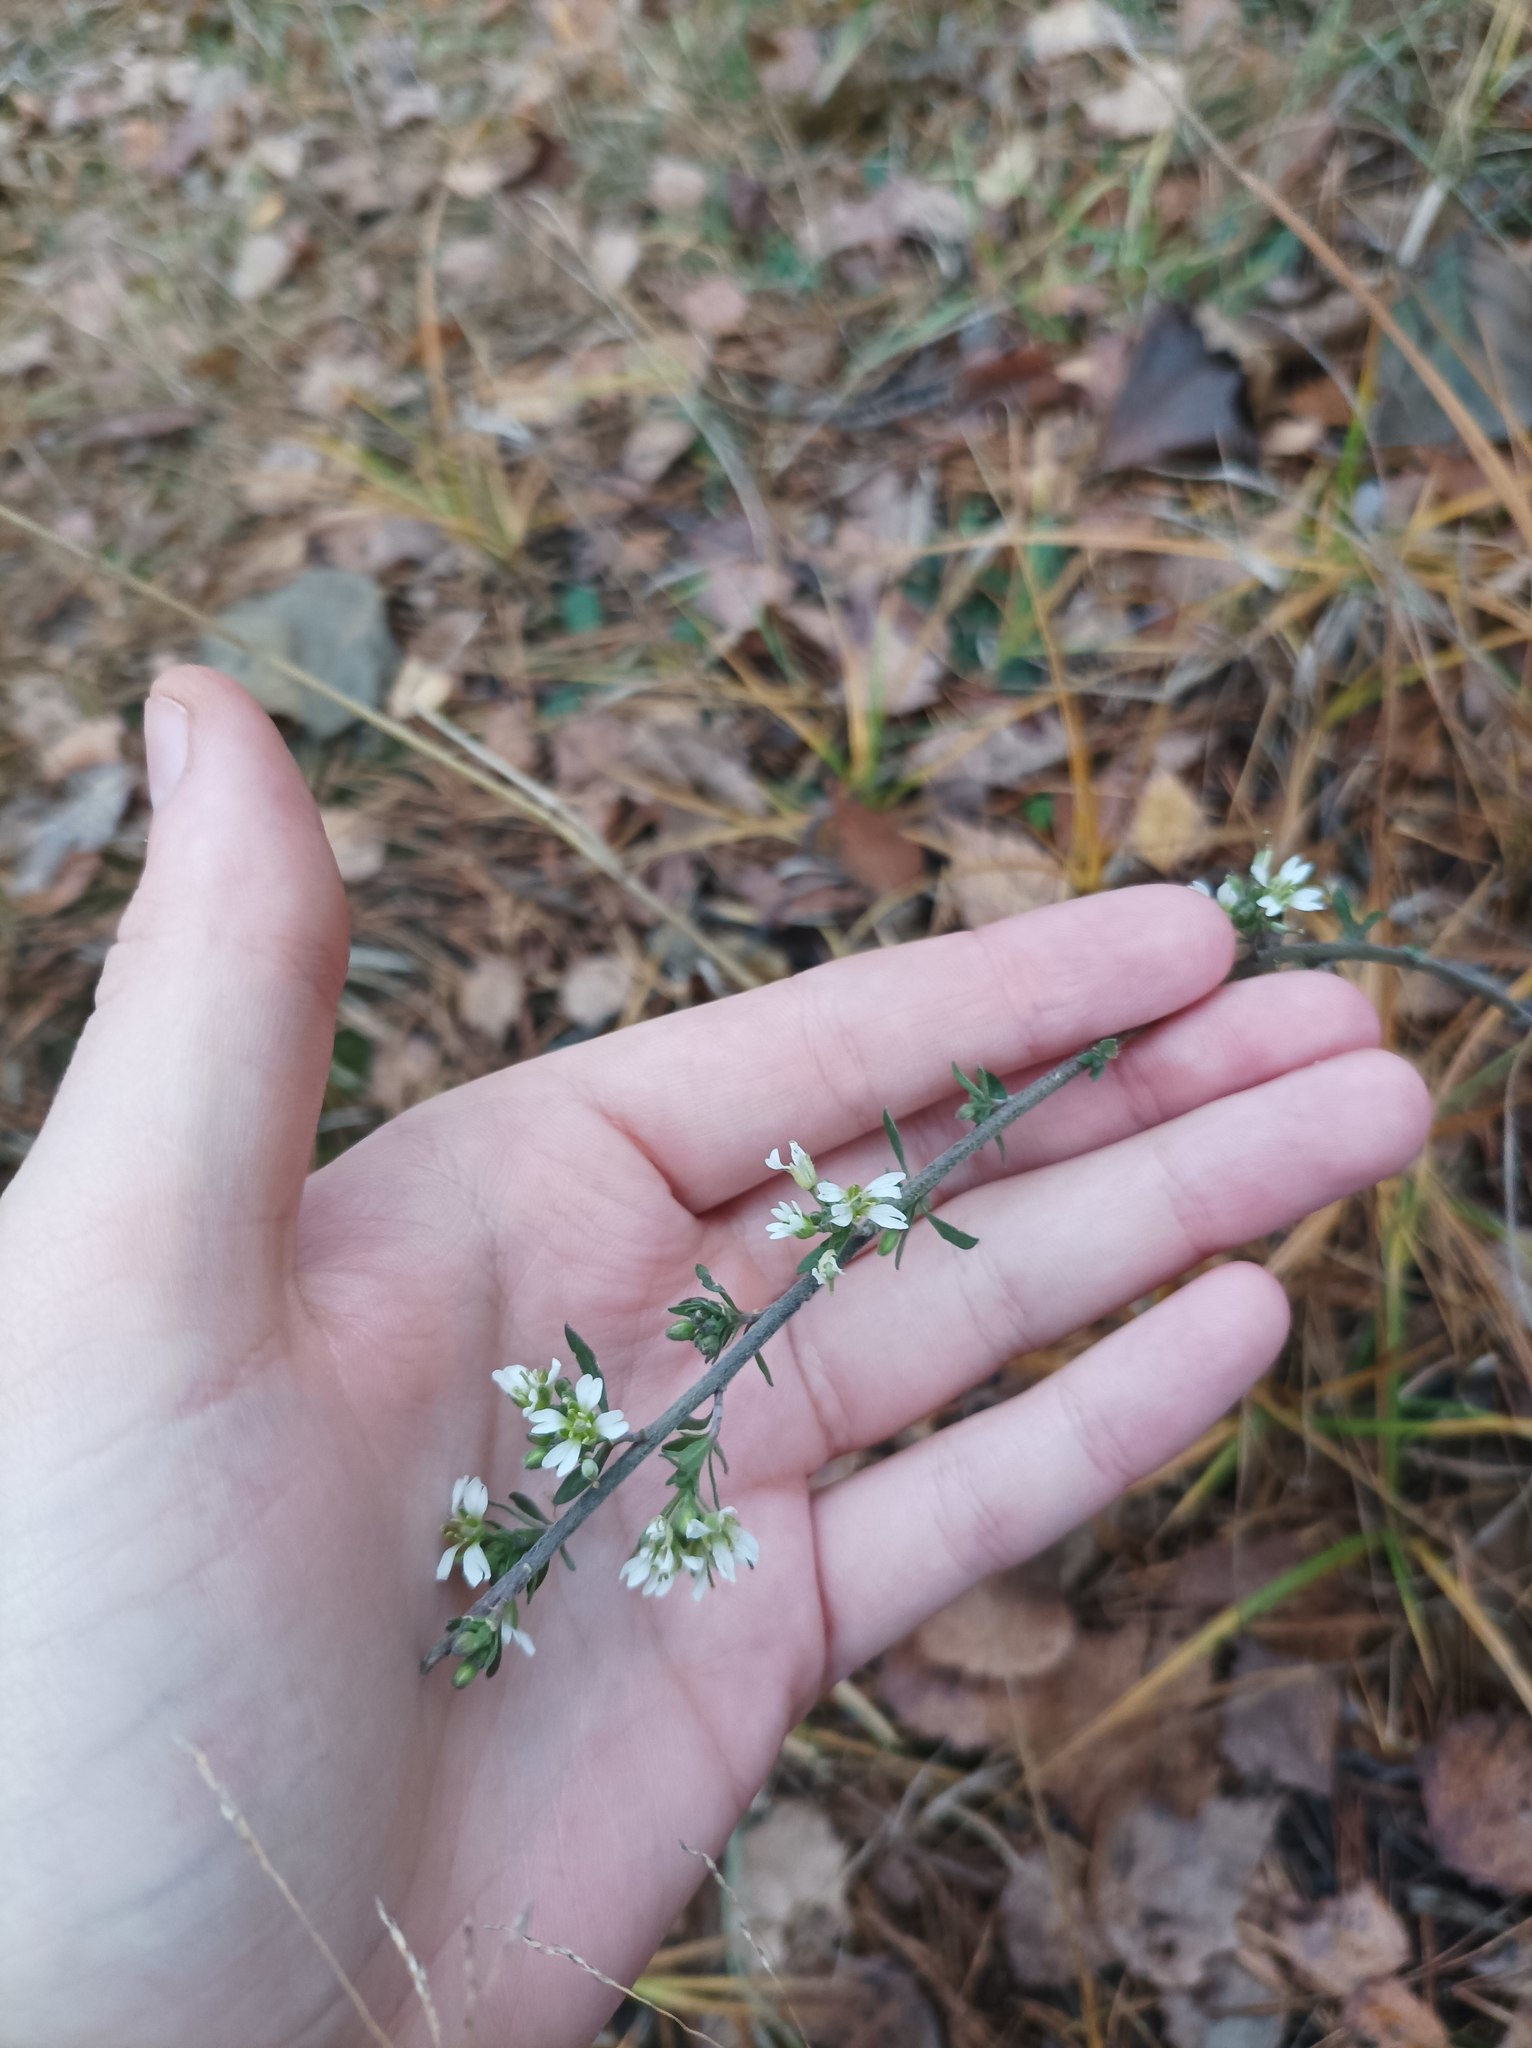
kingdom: Plantae
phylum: Tracheophyta
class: Magnoliopsida
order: Brassicales
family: Brassicaceae
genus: Berteroa
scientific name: Berteroa incana
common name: Hoary alison
